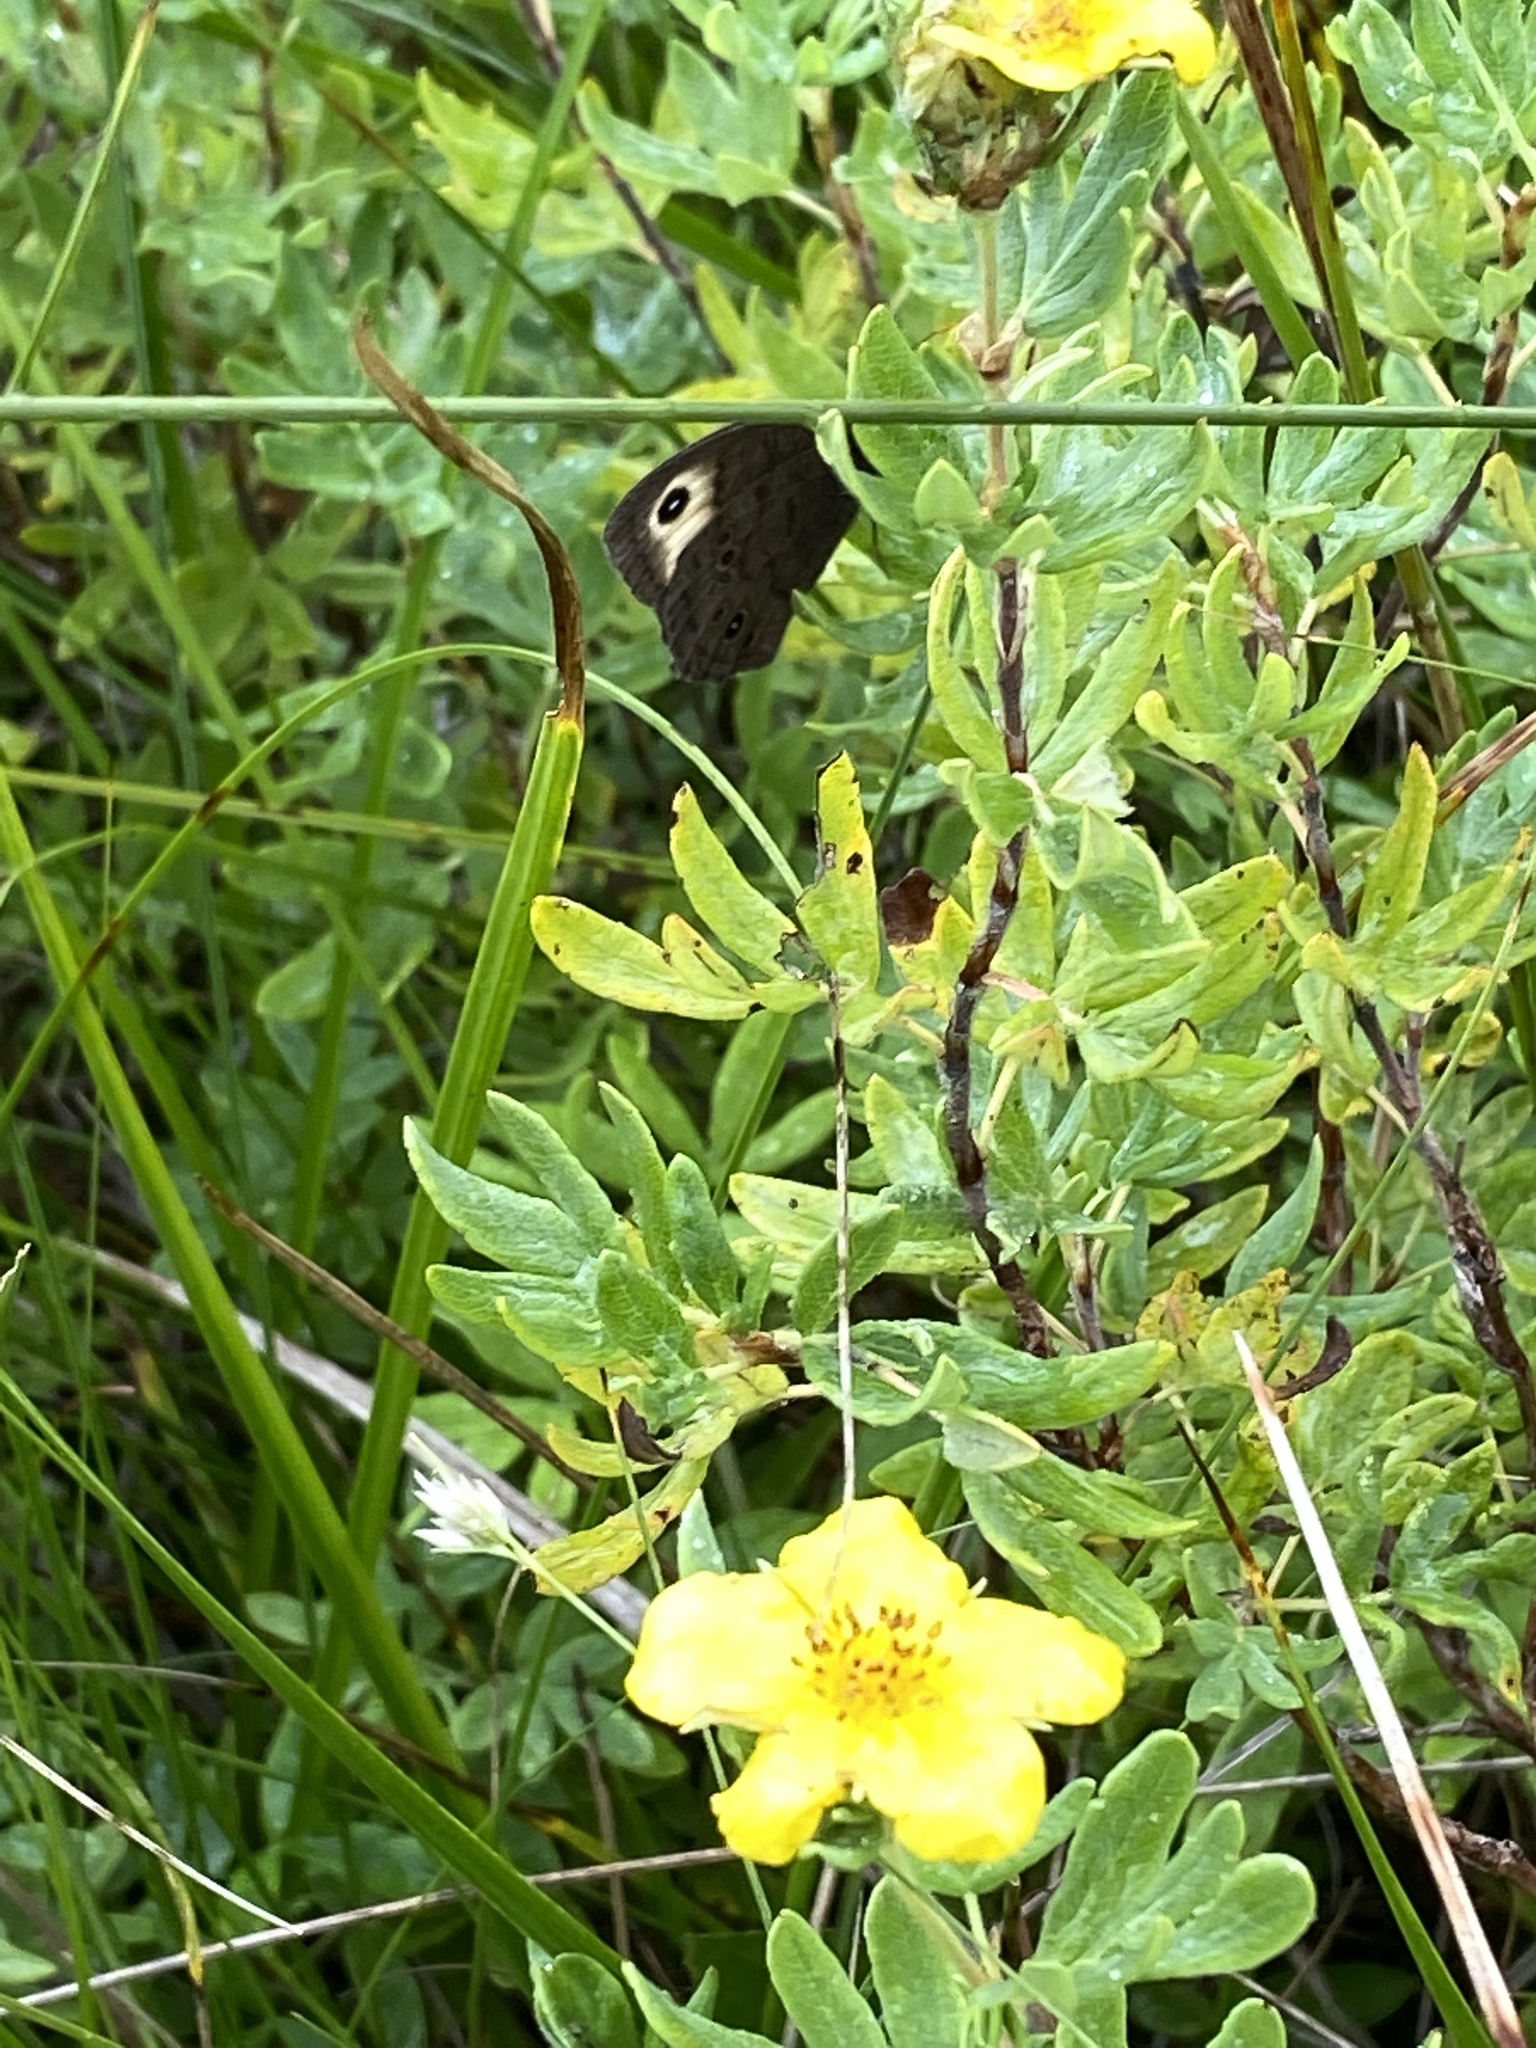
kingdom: Animalia
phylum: Arthropoda
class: Insecta
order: Lepidoptera
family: Nymphalidae
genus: Cercyonis
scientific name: Cercyonis pegala
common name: Common wood-nymph
